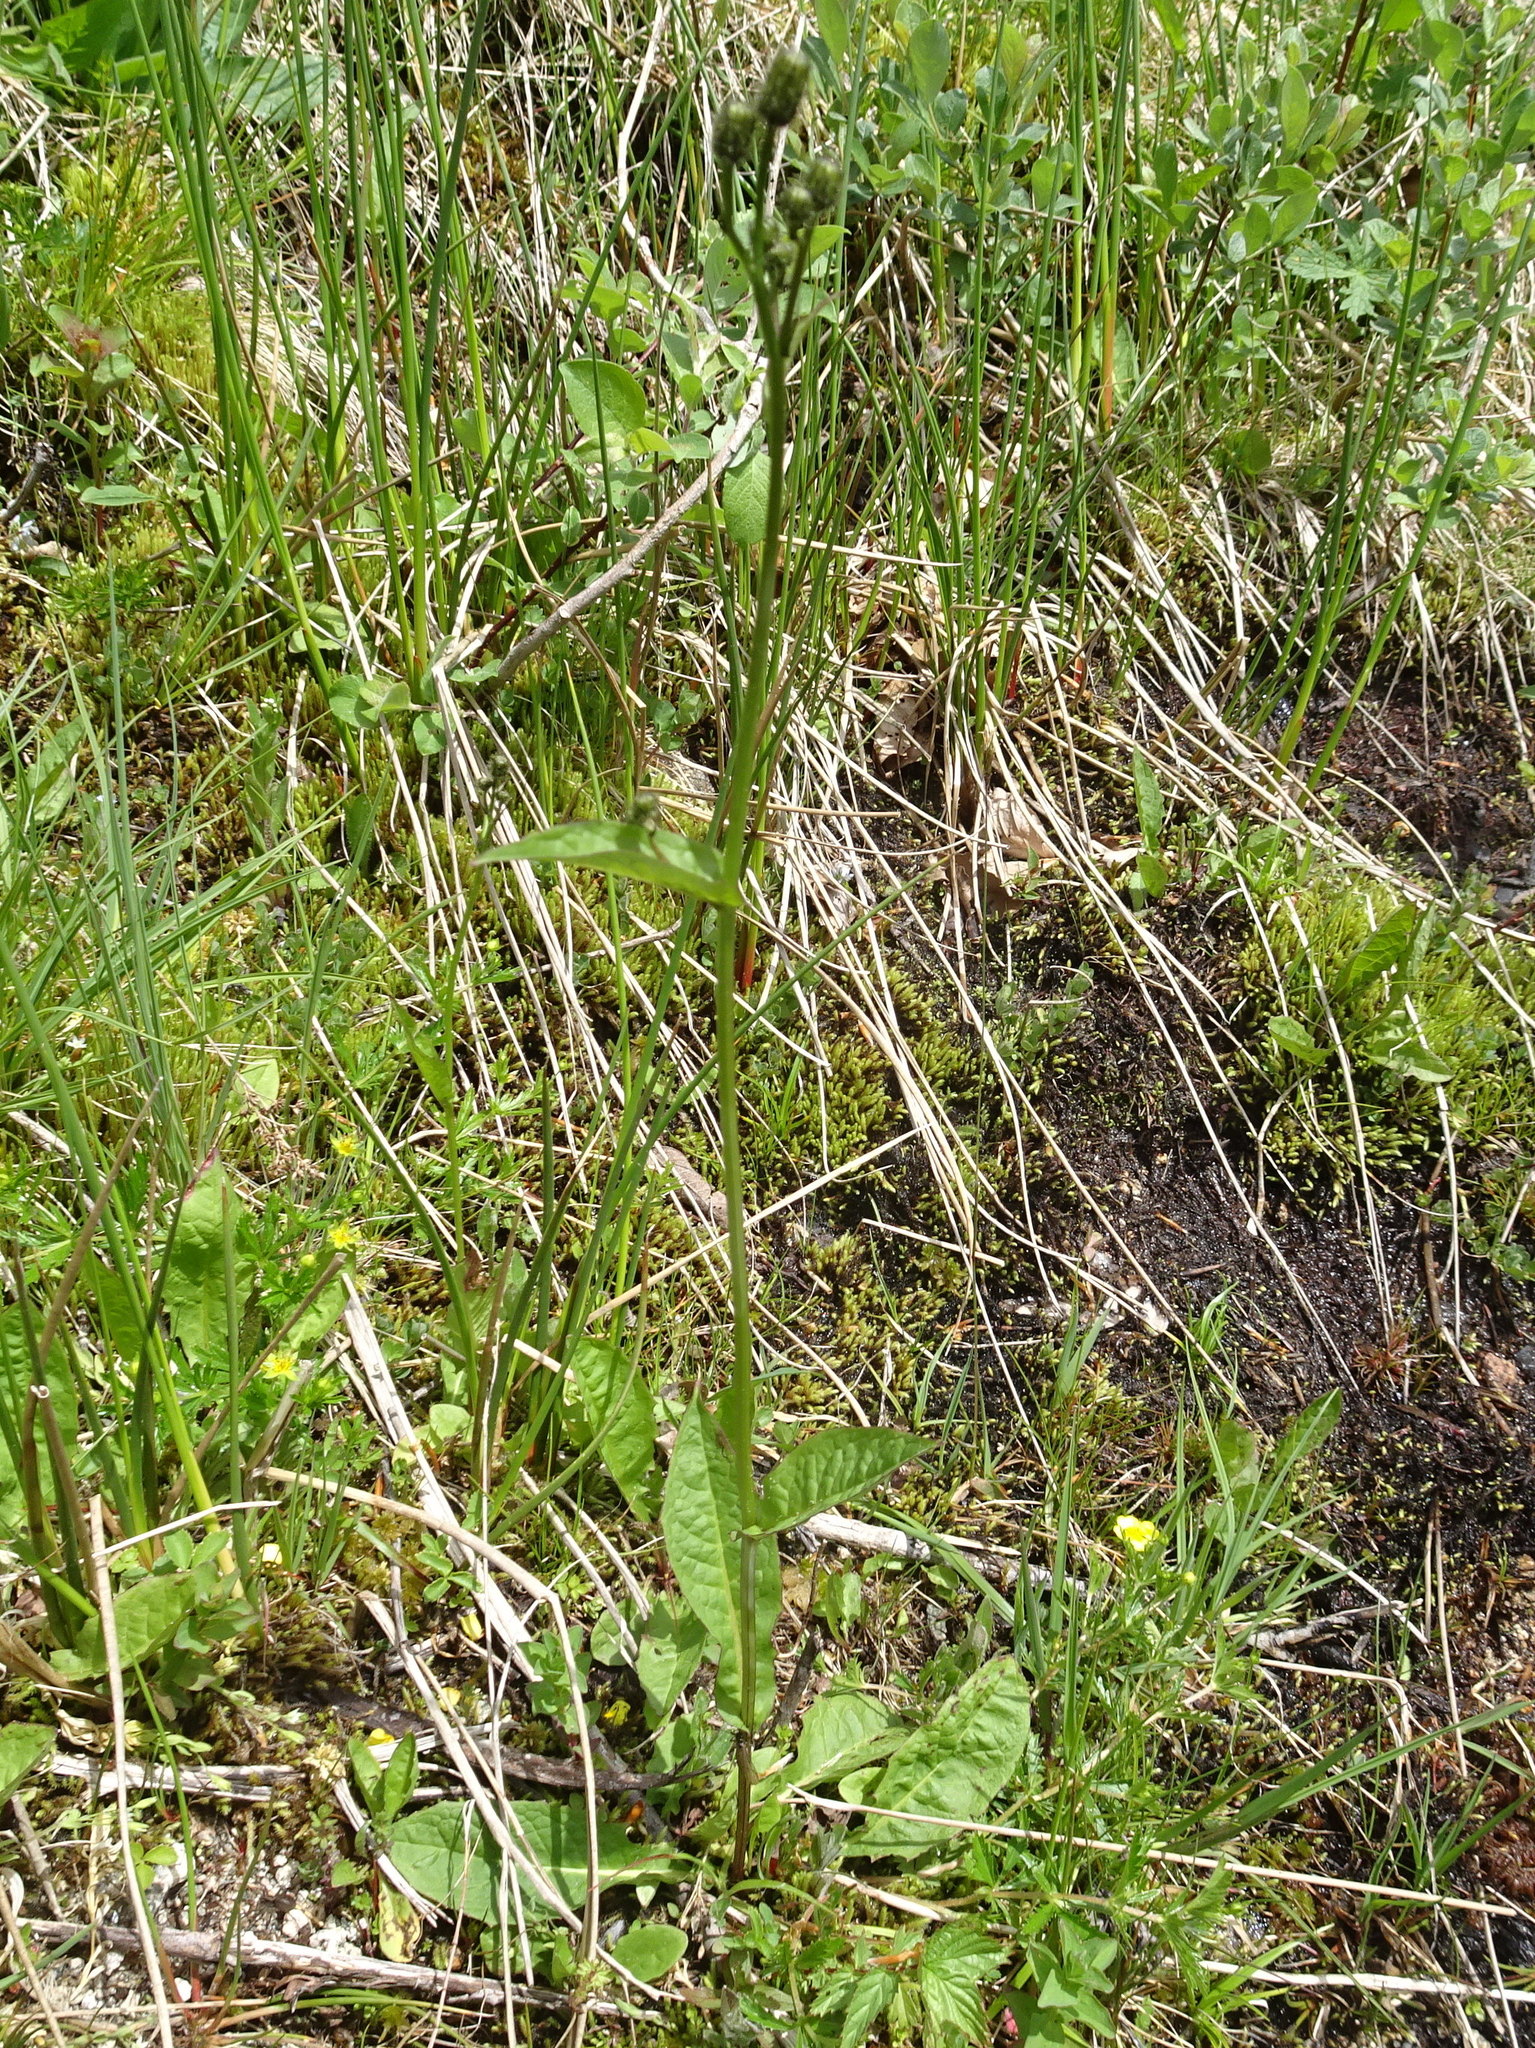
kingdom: Plantae
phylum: Tracheophyta
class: Magnoliopsida
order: Asterales
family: Asteraceae
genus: Crepis
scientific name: Crepis paludosa
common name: Marsh hawk's-beard
